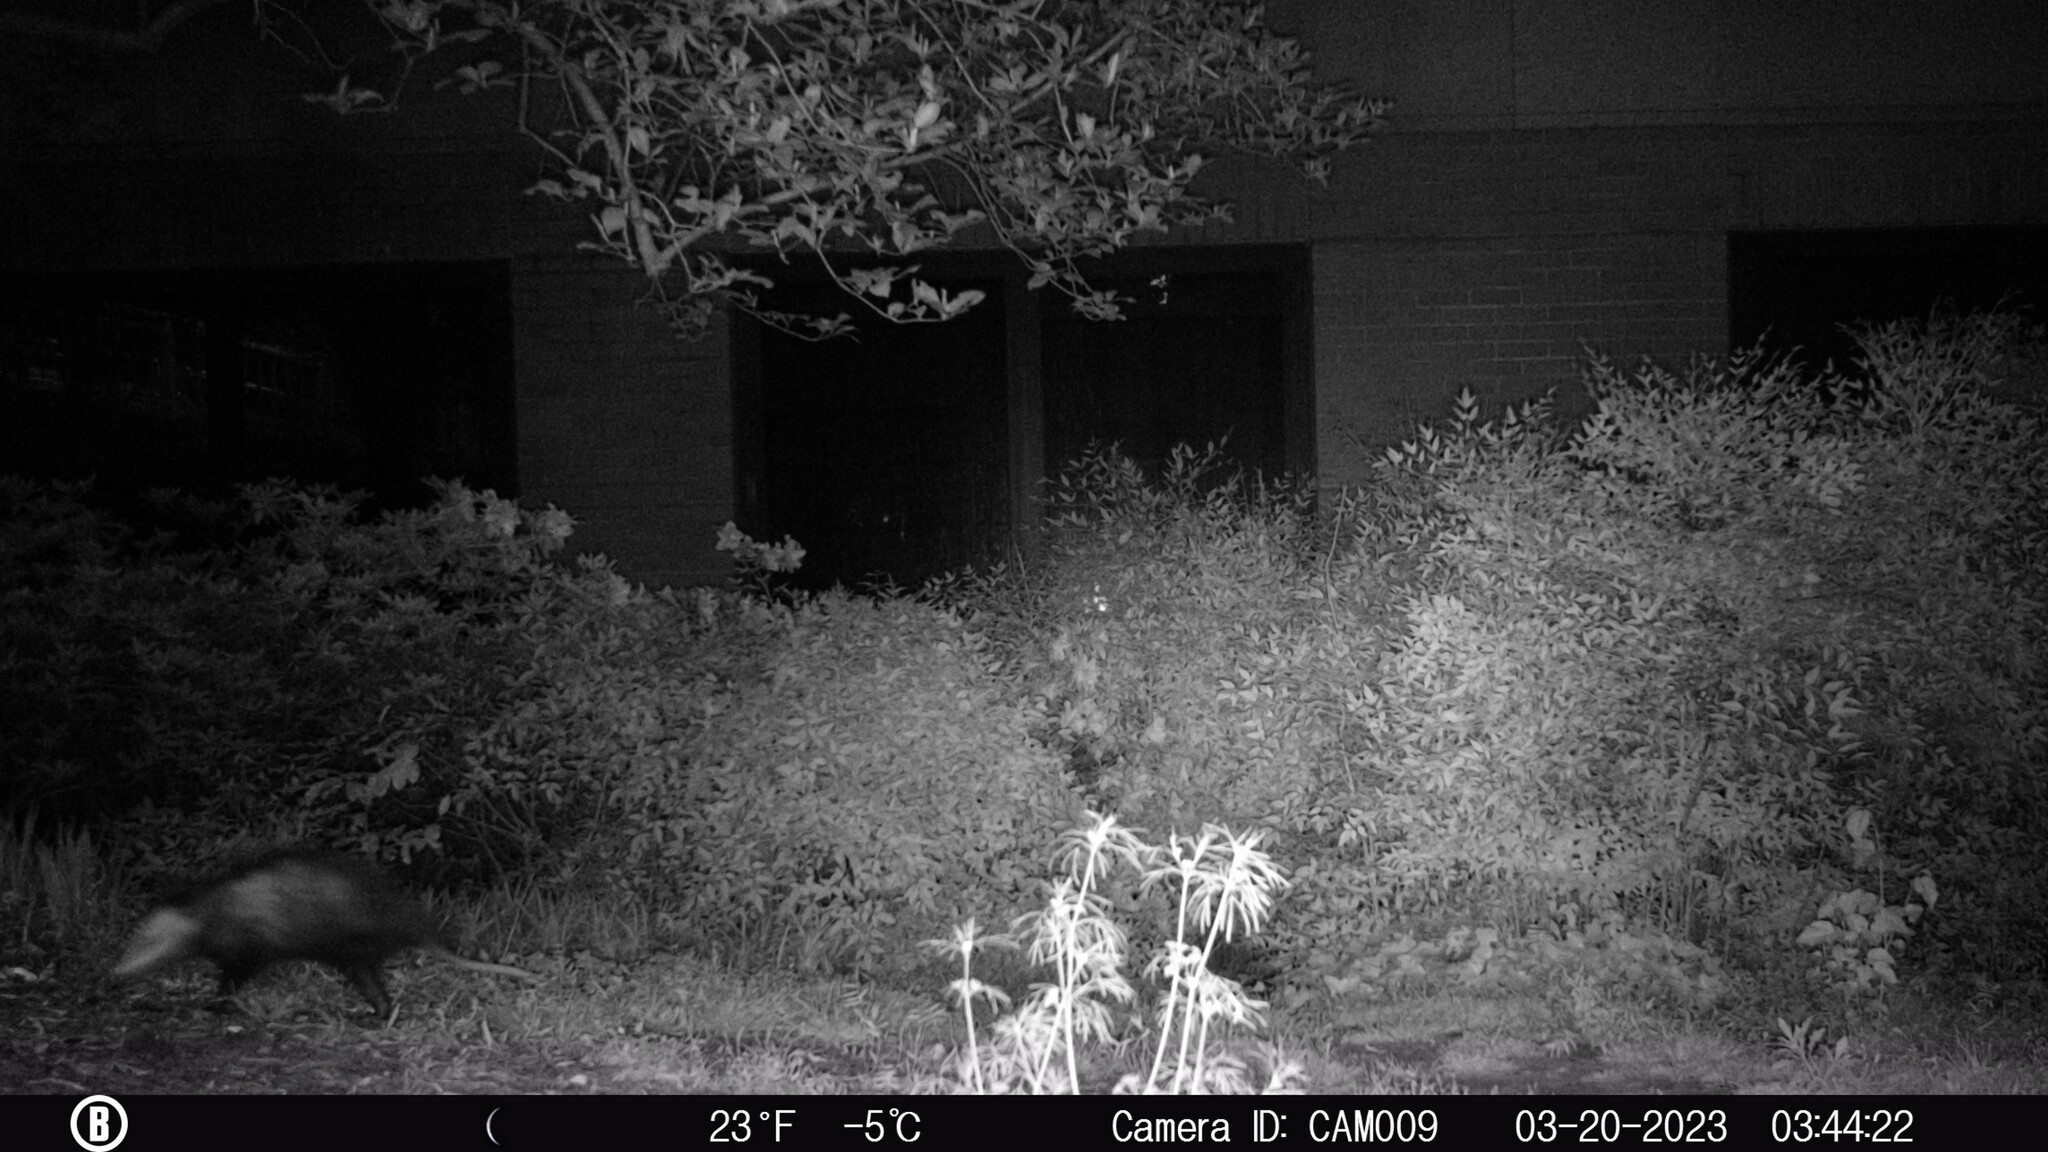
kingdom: Animalia
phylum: Chordata
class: Mammalia
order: Didelphimorphia
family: Didelphidae
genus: Didelphis
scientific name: Didelphis virginiana
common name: Virginia opossum
